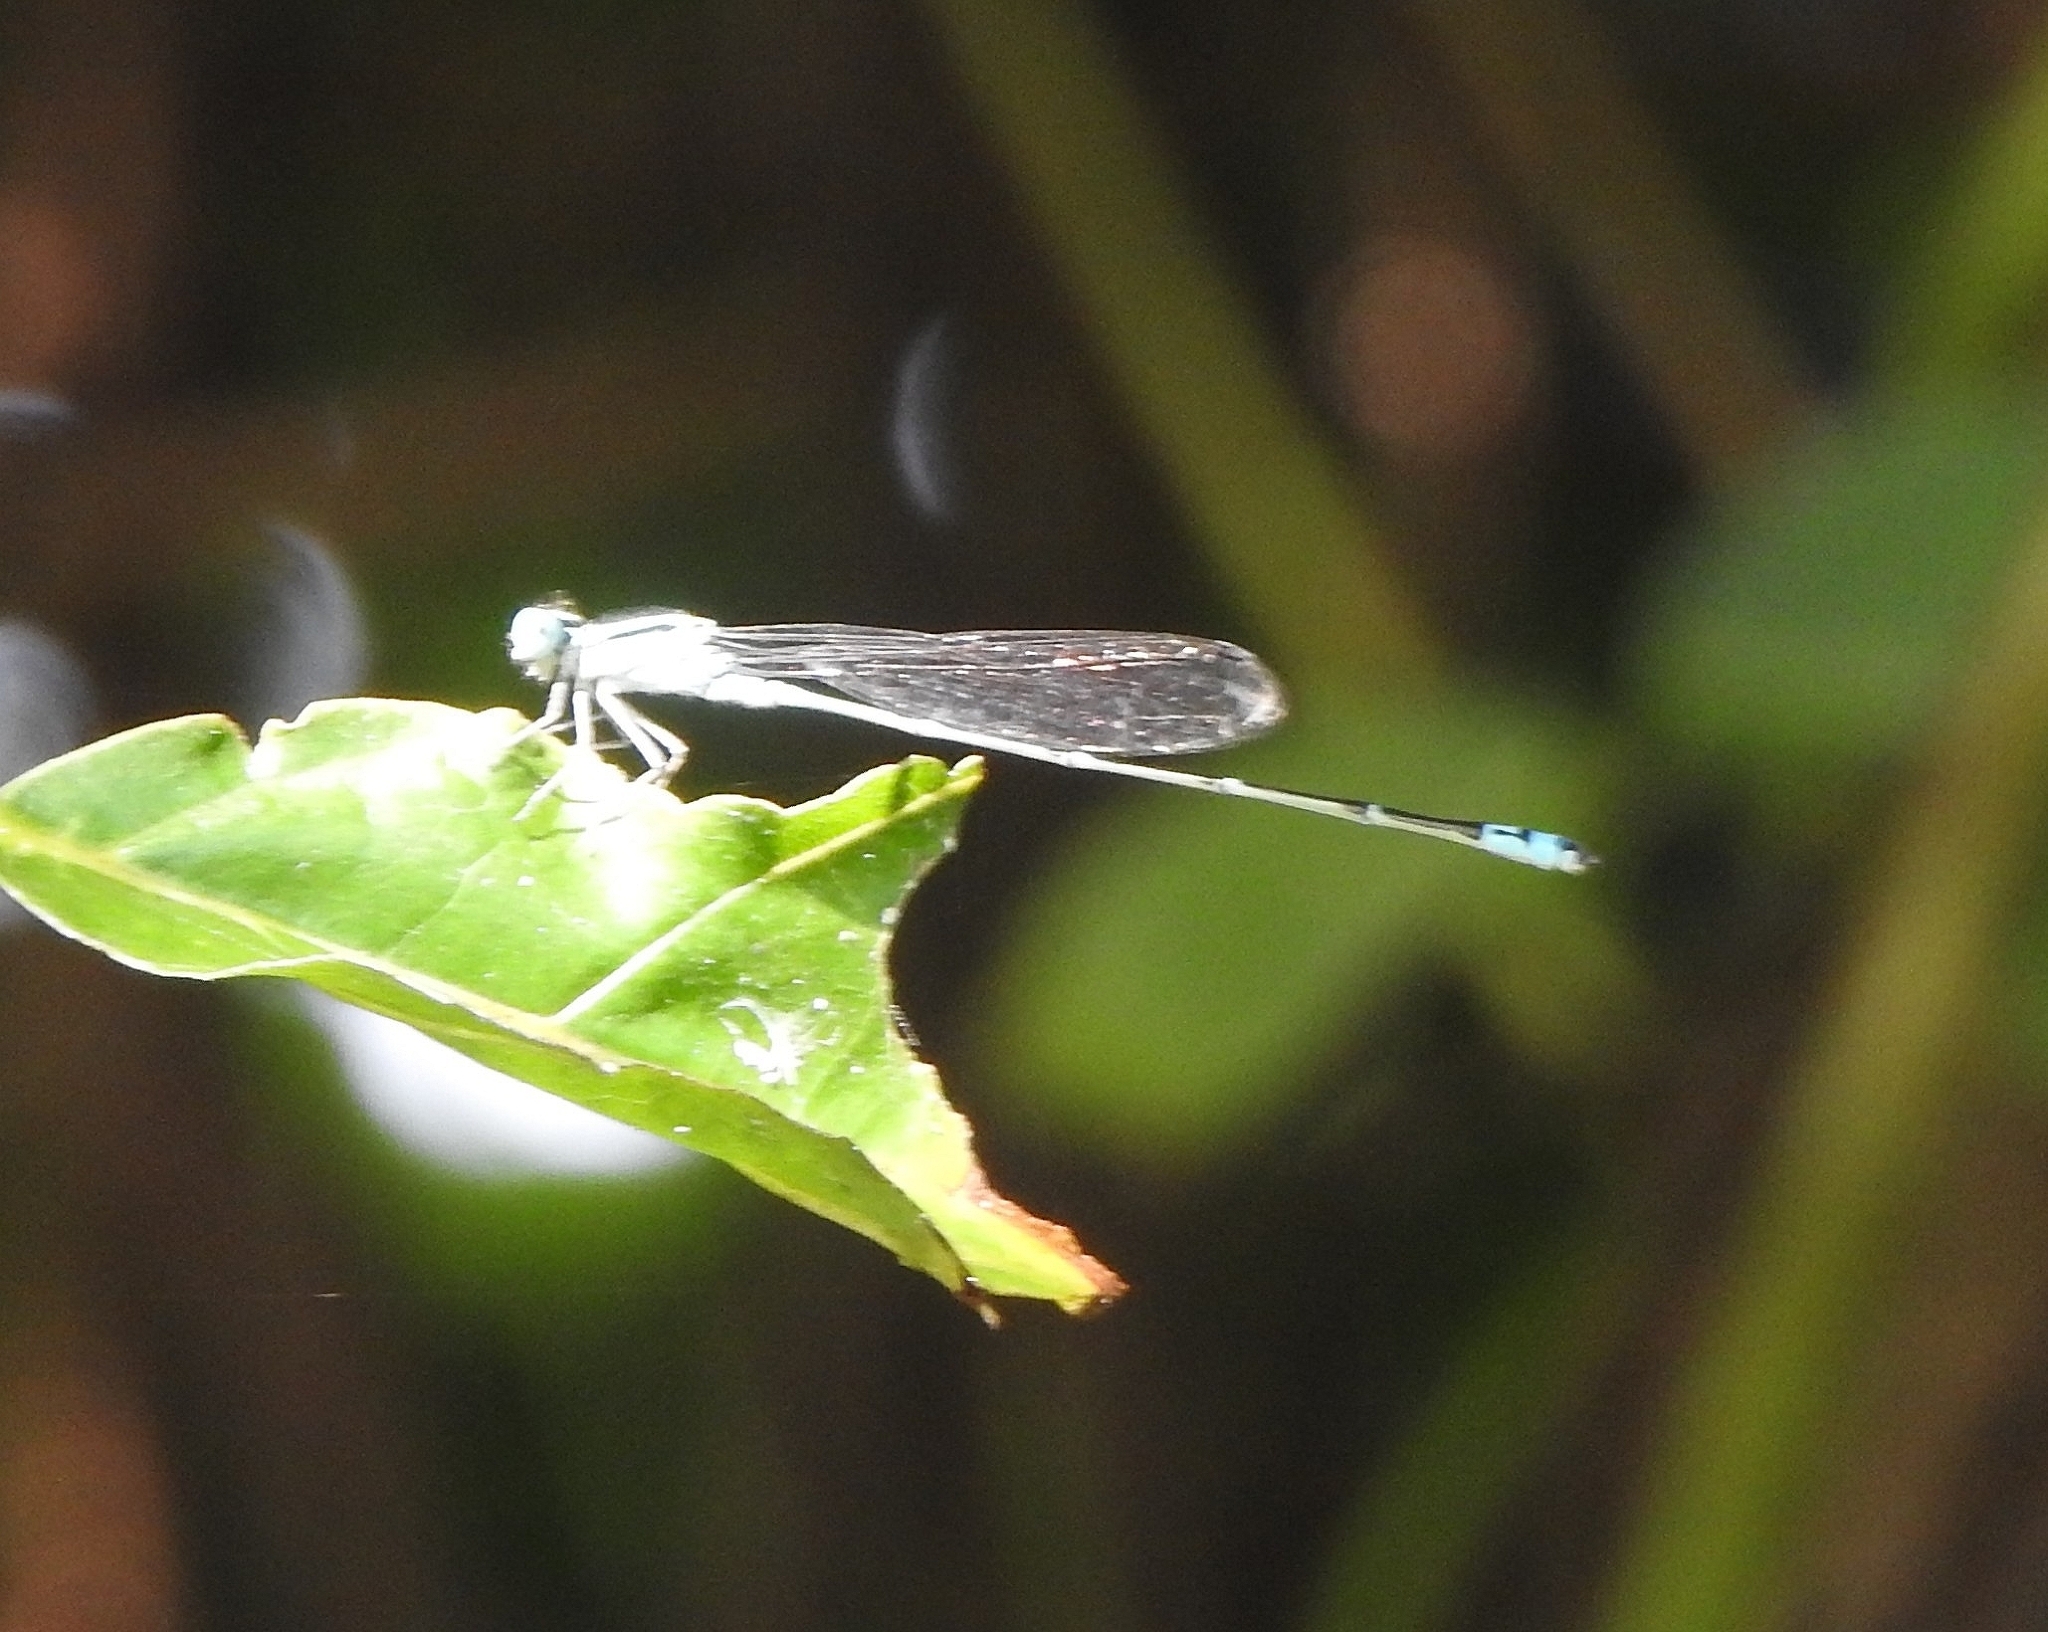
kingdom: Animalia
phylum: Arthropoda
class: Insecta
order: Odonata
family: Coenagrionidae
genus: Pseudagrion
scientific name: Pseudagrion microcephalum
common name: Blue riverdamsel
